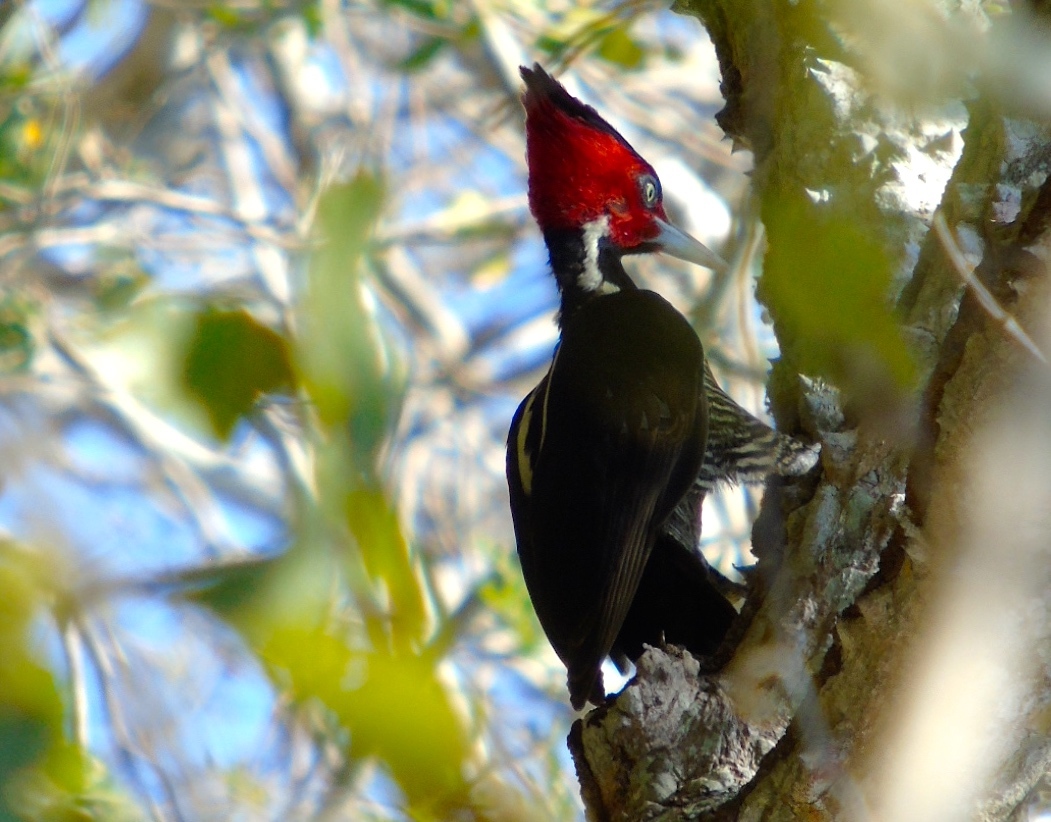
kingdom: Animalia
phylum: Chordata
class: Aves
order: Piciformes
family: Picidae
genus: Campephilus
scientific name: Campephilus guatemalensis
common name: Pale-billed woodpecker
